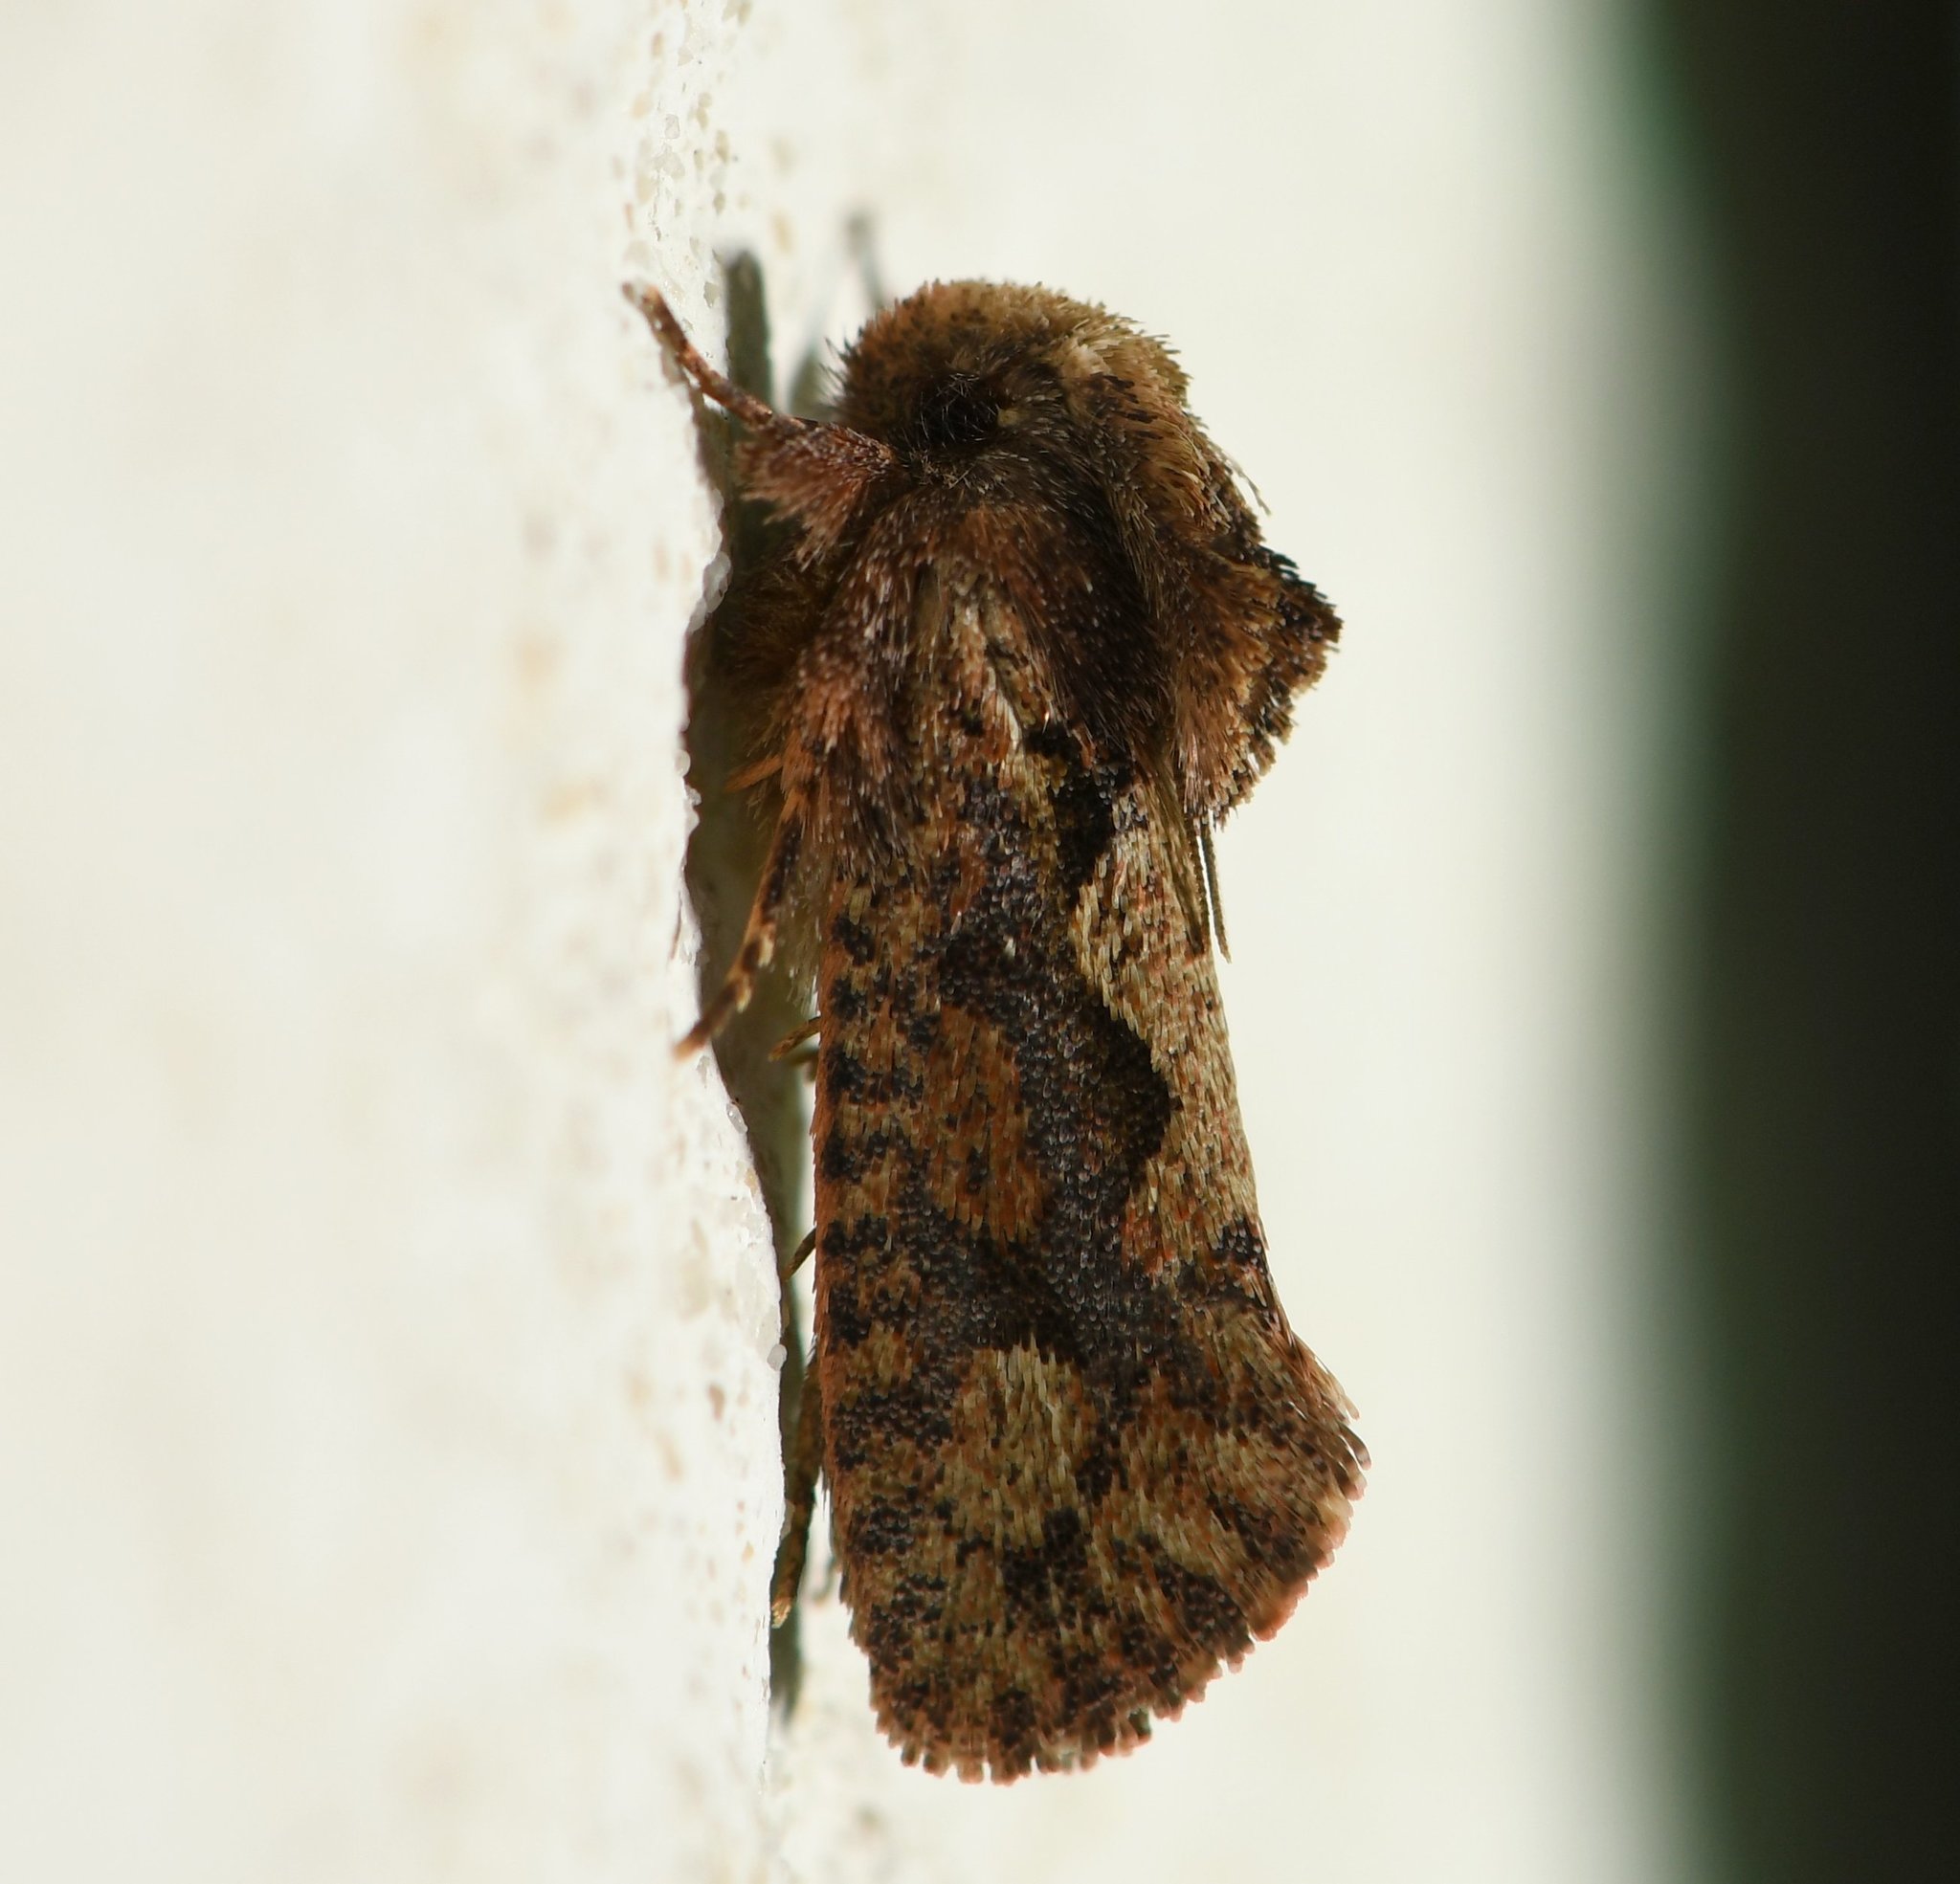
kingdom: Animalia
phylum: Arthropoda
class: Insecta
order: Lepidoptera
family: Tineidae
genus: Acrolophus
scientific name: Acrolophus walsinghami
